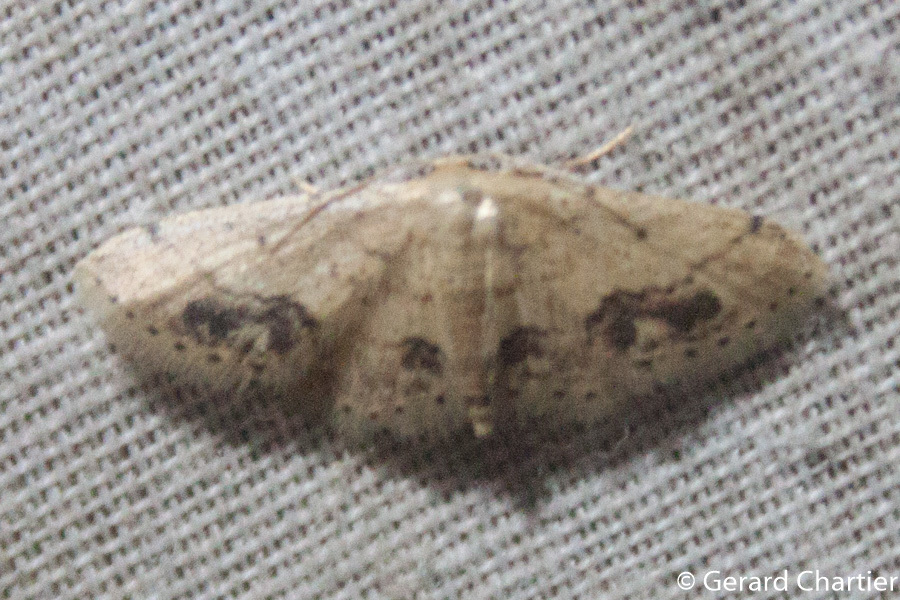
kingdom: Animalia
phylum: Arthropoda
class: Insecta
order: Lepidoptera
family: Geometridae
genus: Idaea
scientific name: Idaea chotaria
